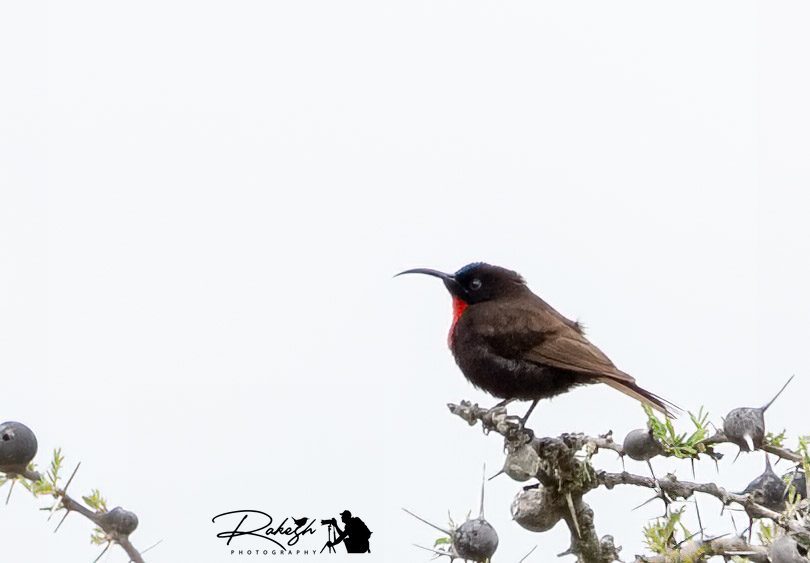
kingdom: Animalia
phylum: Chordata
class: Aves
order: Passeriformes
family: Nectariniidae
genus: Chalcomitra
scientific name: Chalcomitra senegalensis
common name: Scarlet-chested sunbird
